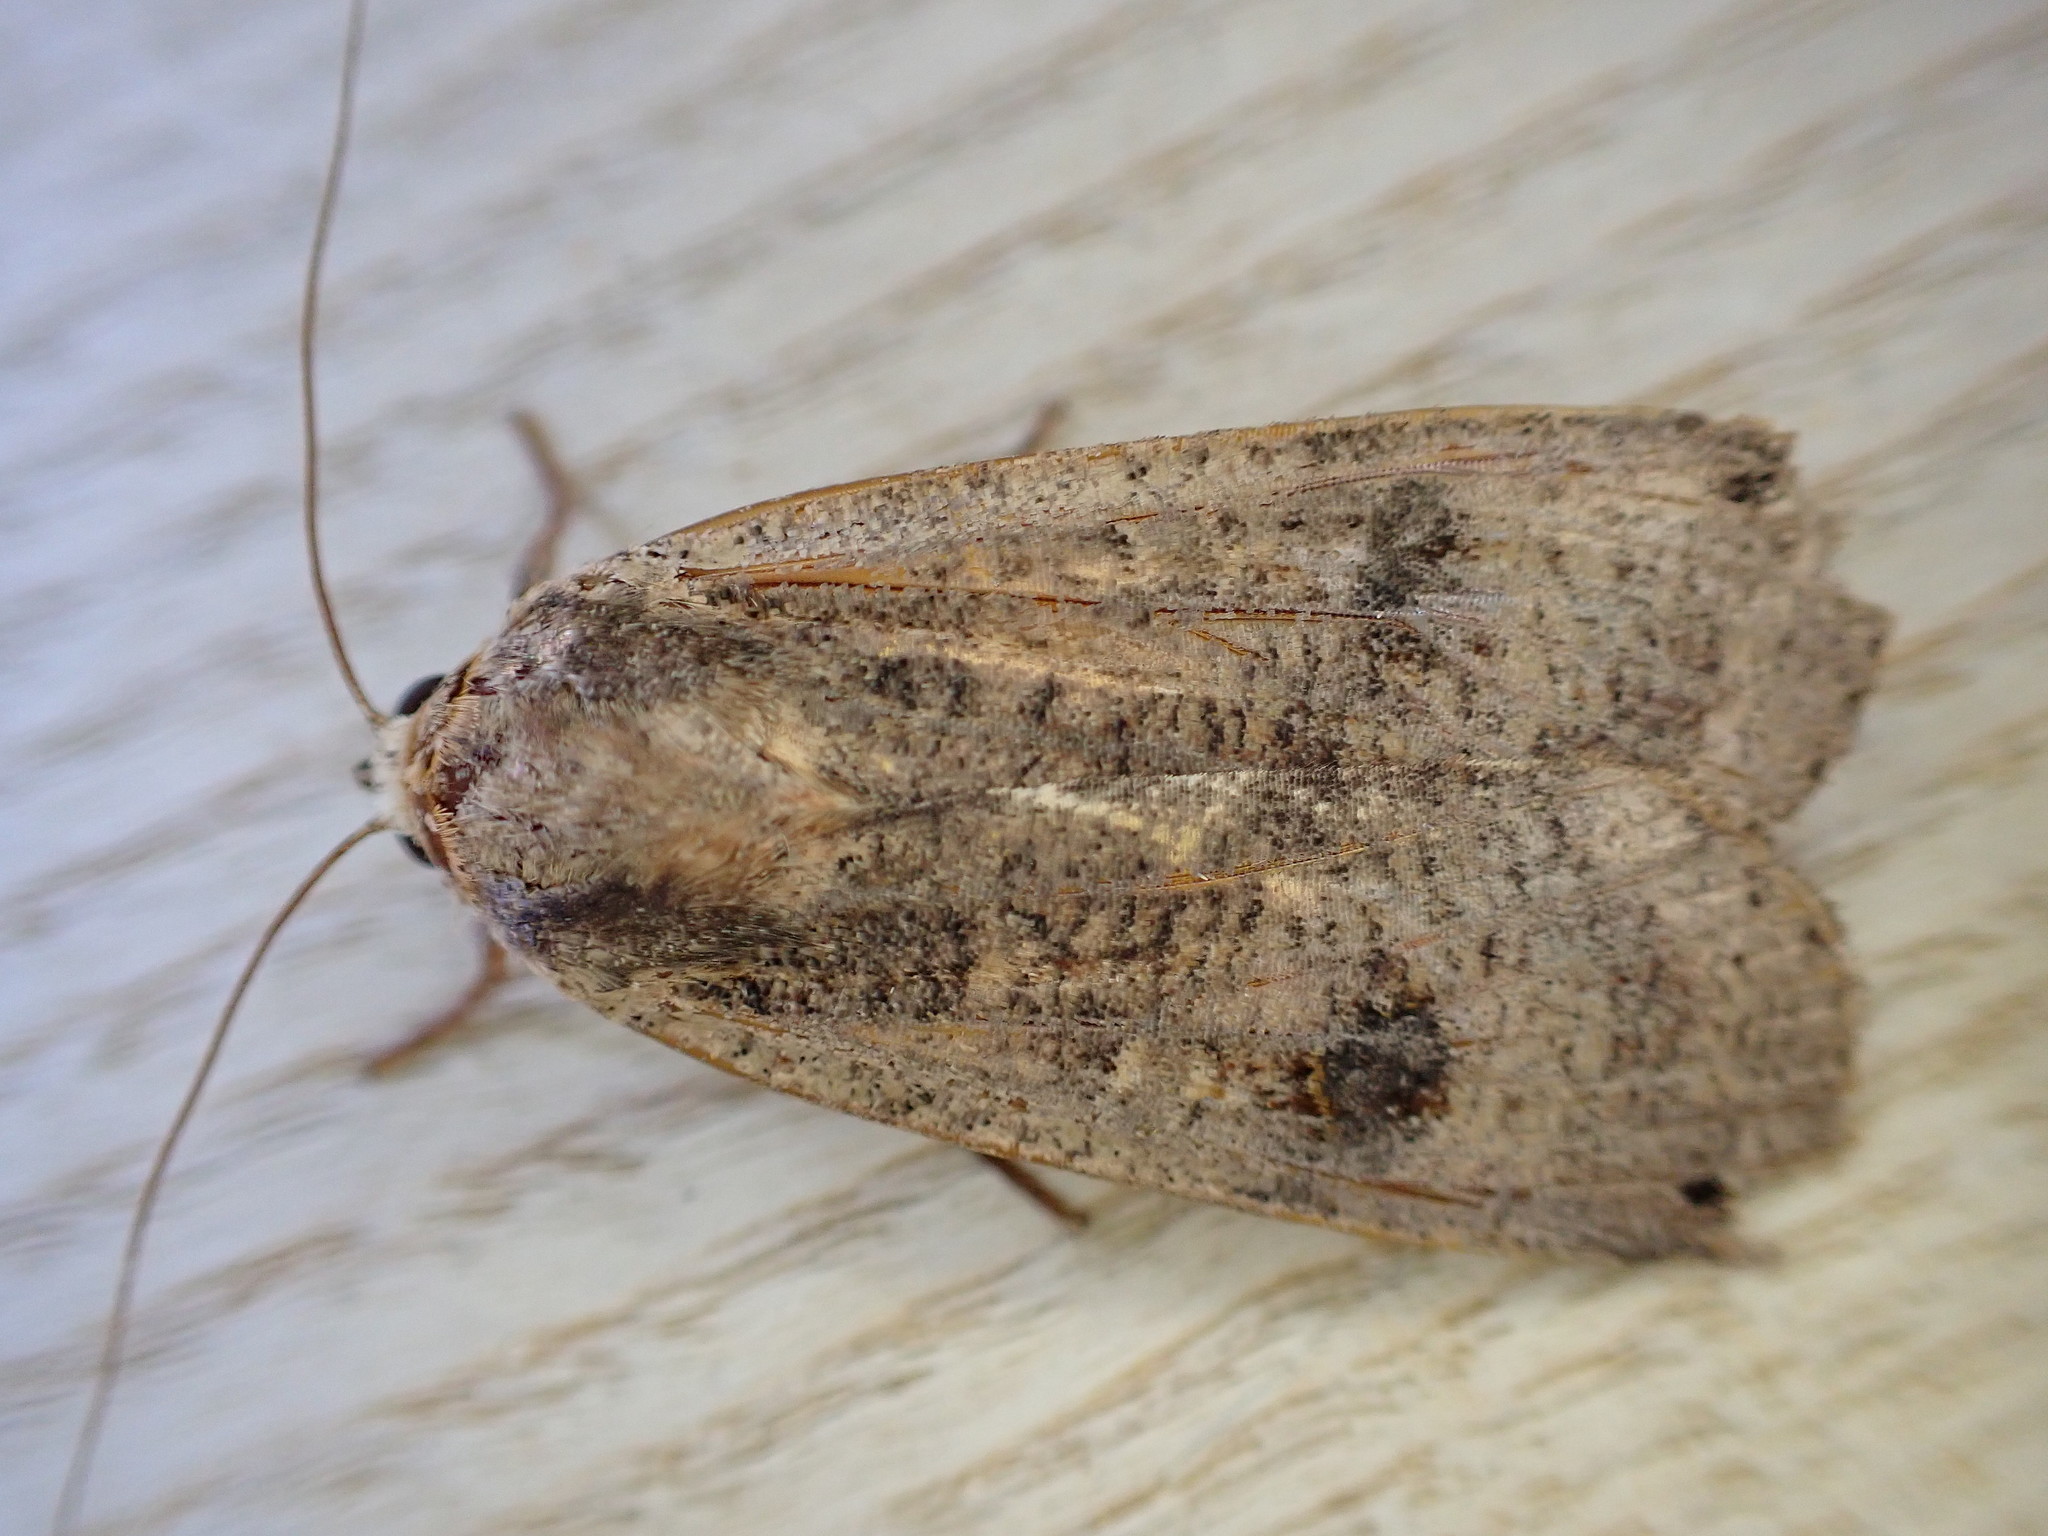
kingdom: Animalia
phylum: Arthropoda
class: Insecta
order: Lepidoptera
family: Noctuidae
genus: Noctua
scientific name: Noctua pronuba
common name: Large yellow underwing
